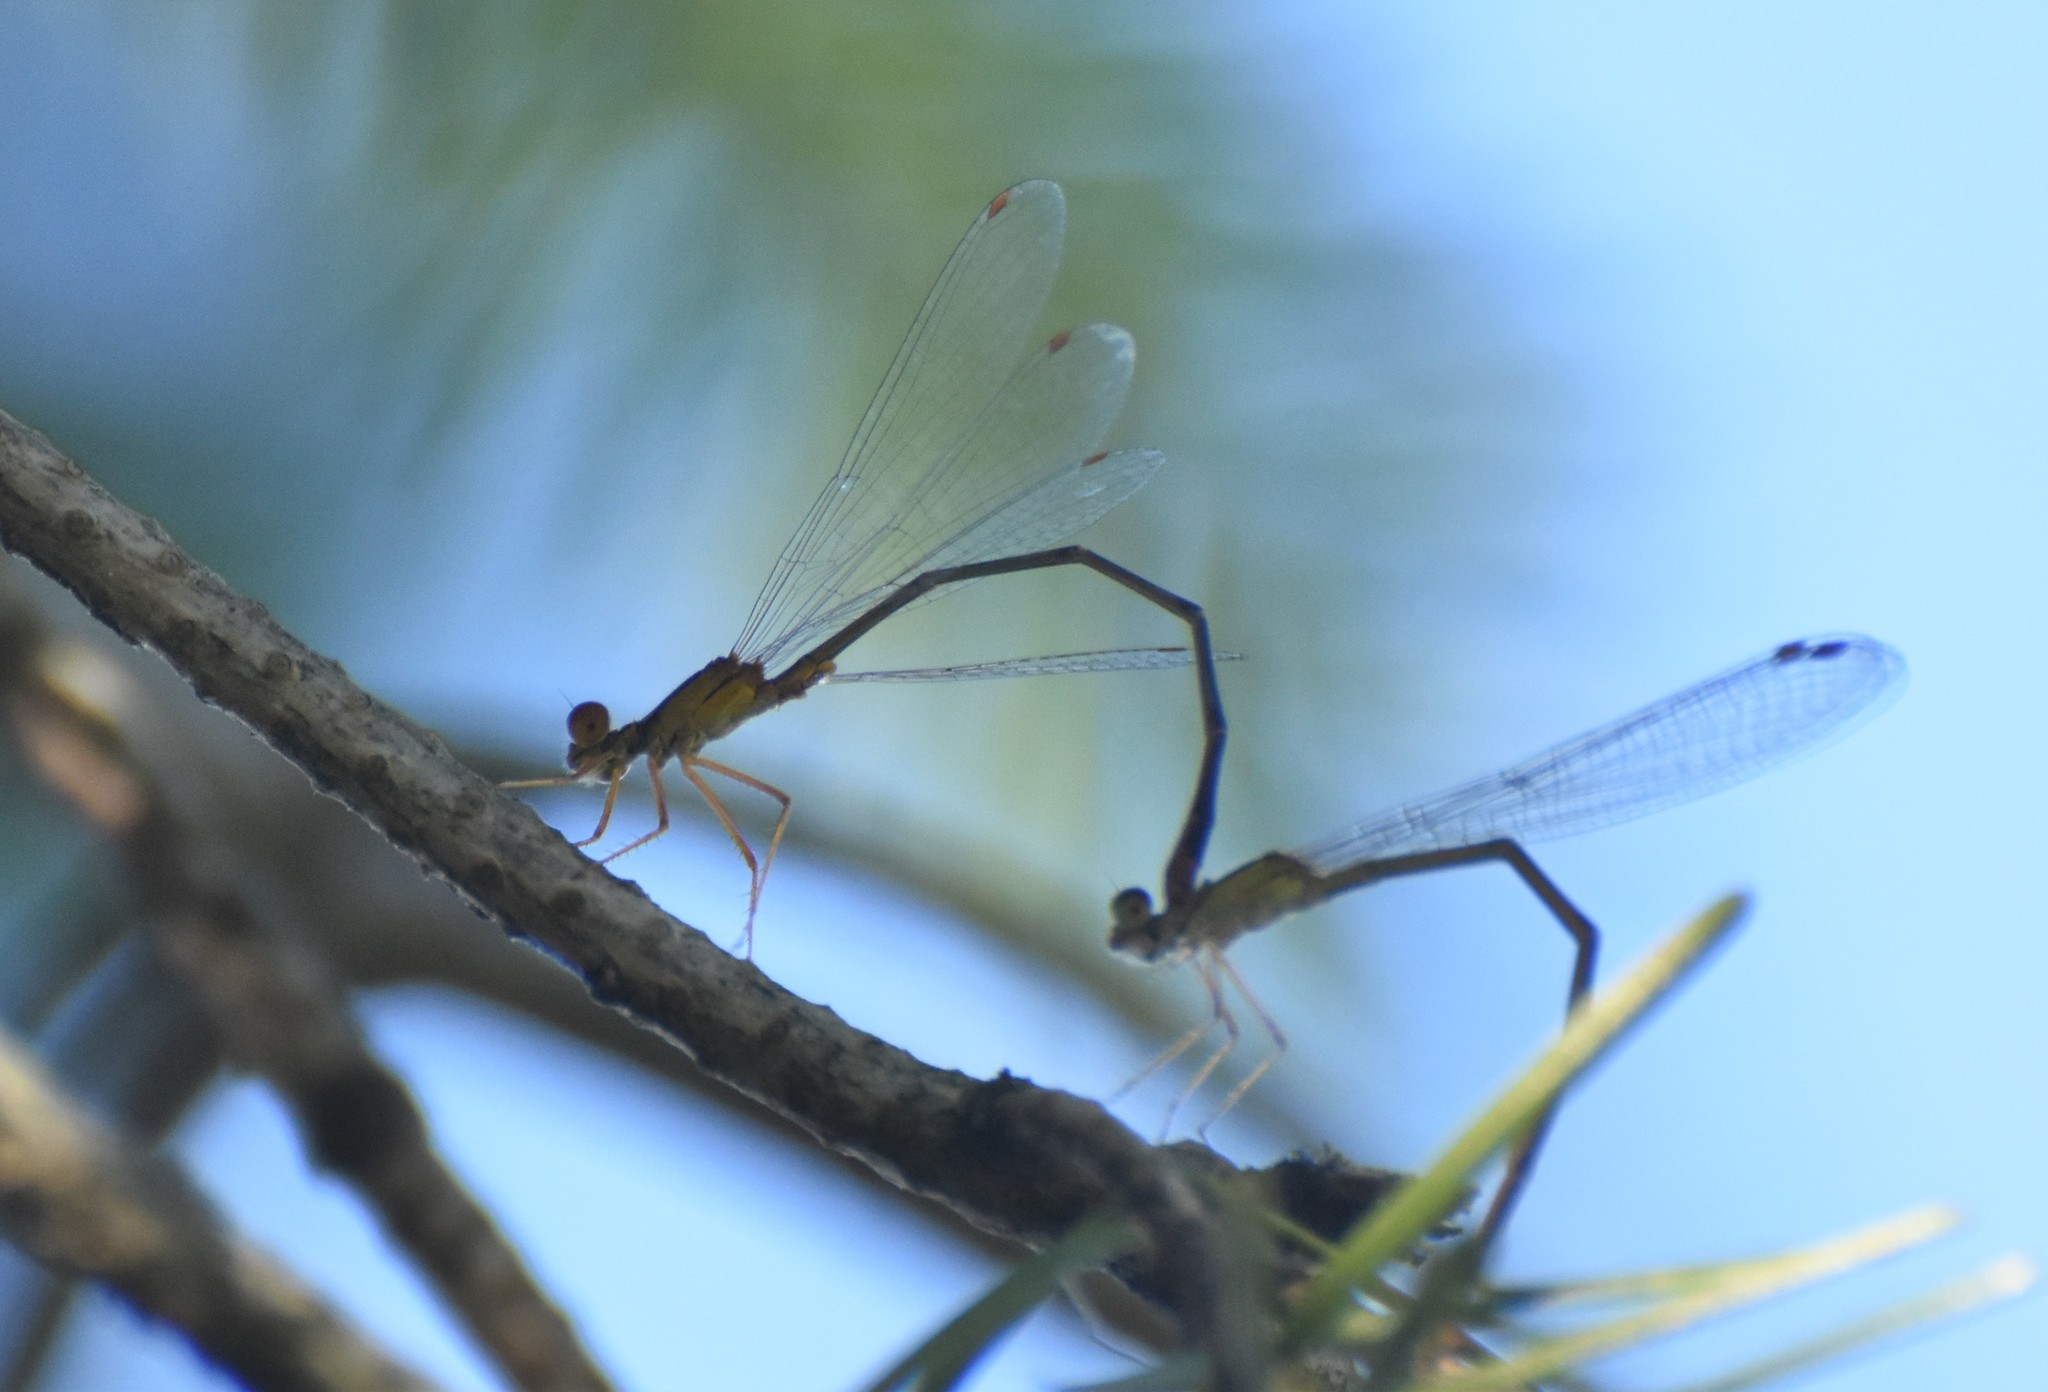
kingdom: Animalia
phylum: Arthropoda
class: Insecta
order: Odonata
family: Coenagrionidae
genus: Enallagma
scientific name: Enallagma signatum
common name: Orange bluet
